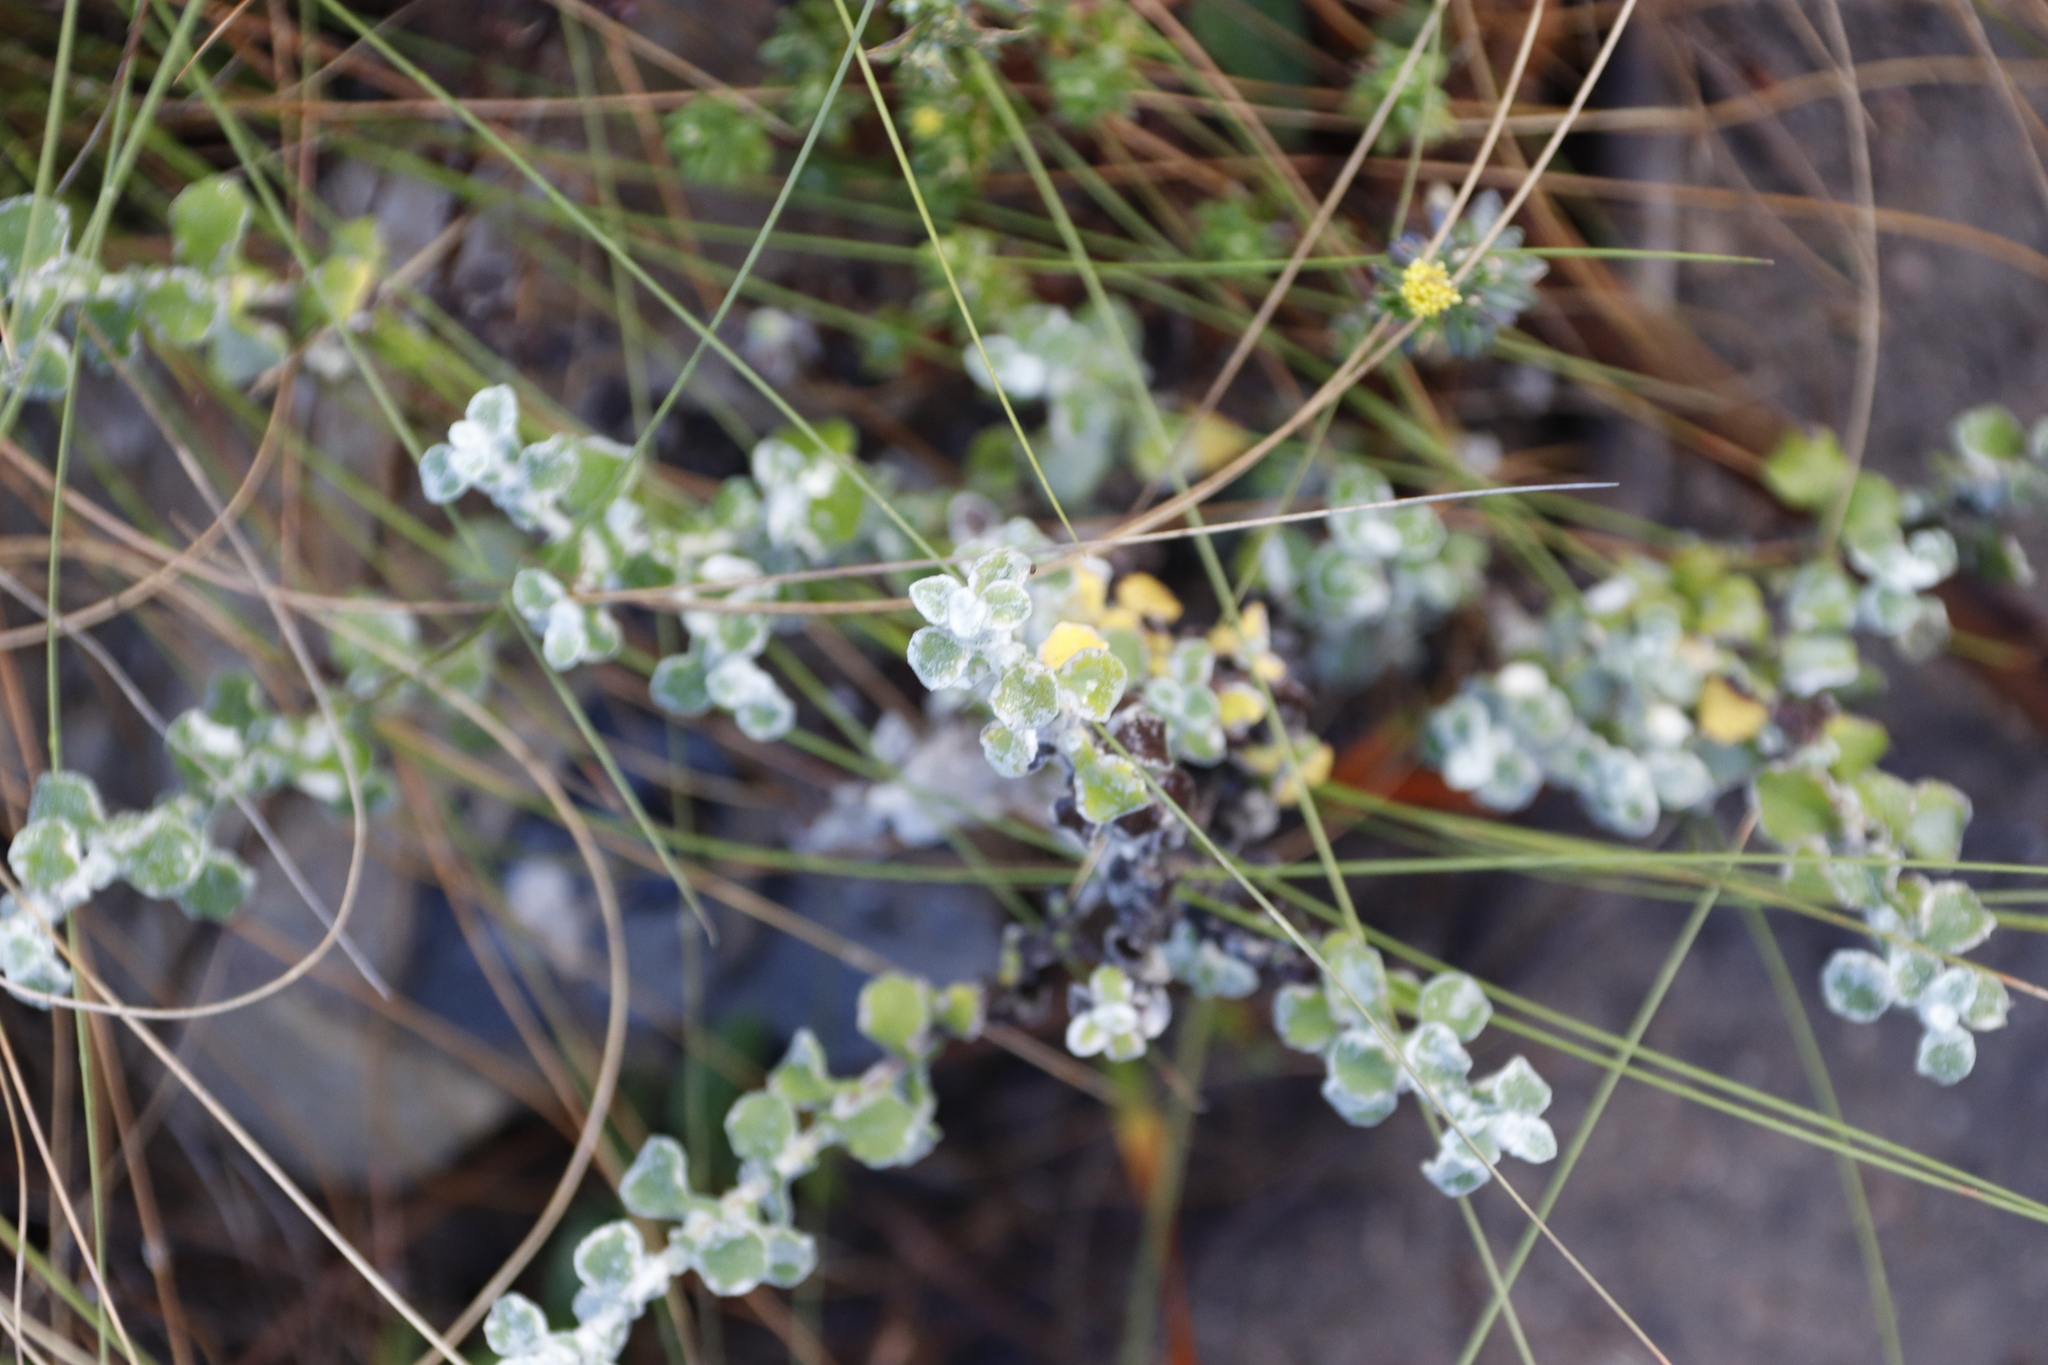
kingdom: Plantae
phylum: Tracheophyta
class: Magnoliopsida
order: Asterales
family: Asteraceae
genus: Helichrysum
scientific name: Helichrysum patulum
